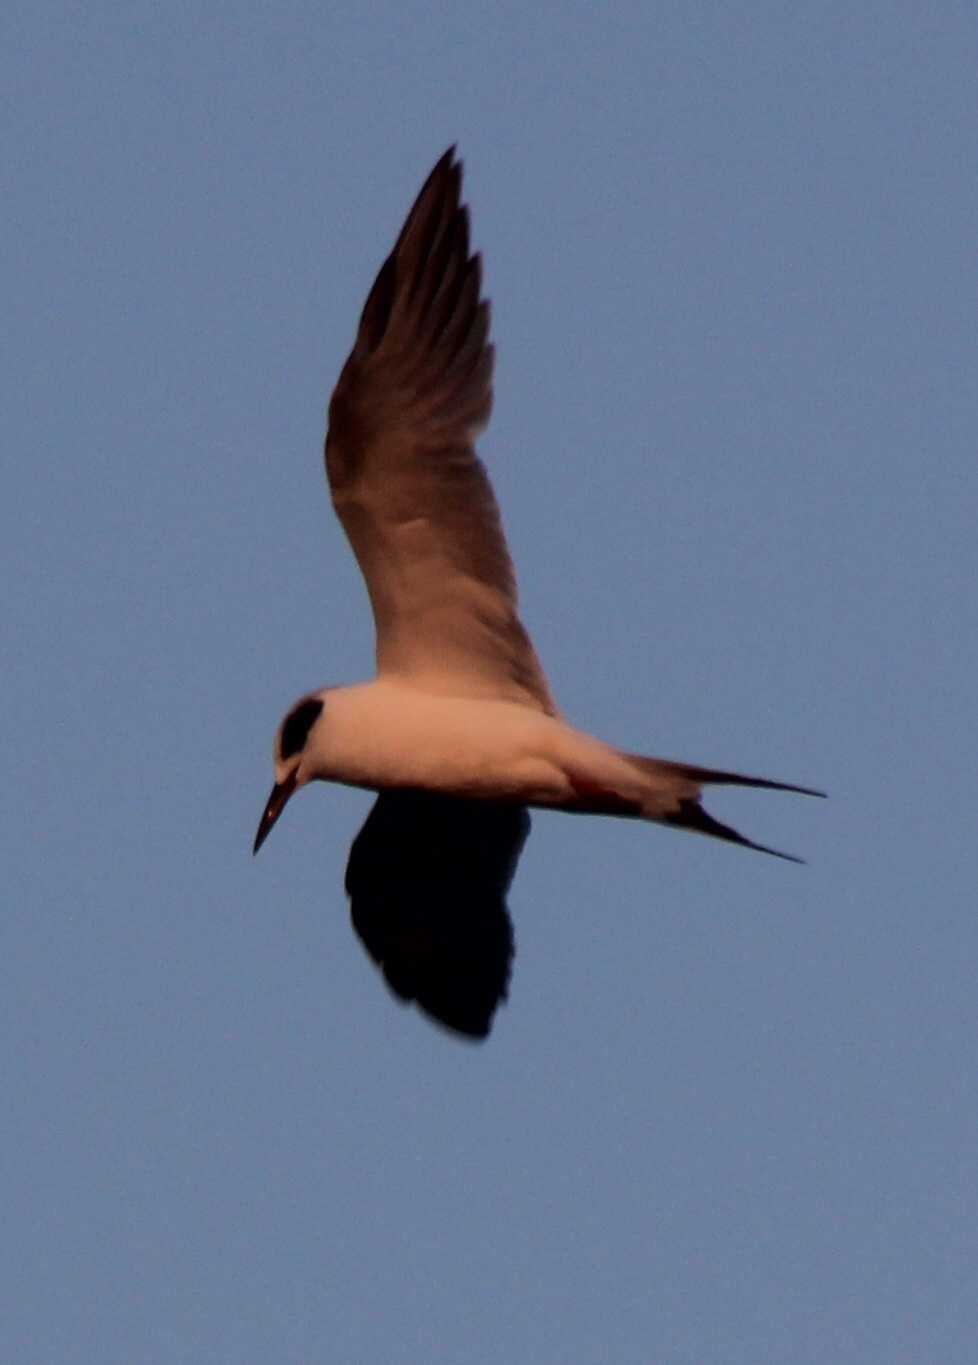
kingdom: Animalia
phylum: Chordata
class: Aves
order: Charadriiformes
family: Laridae
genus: Sterna
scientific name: Sterna forsteri
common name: Forster's tern
